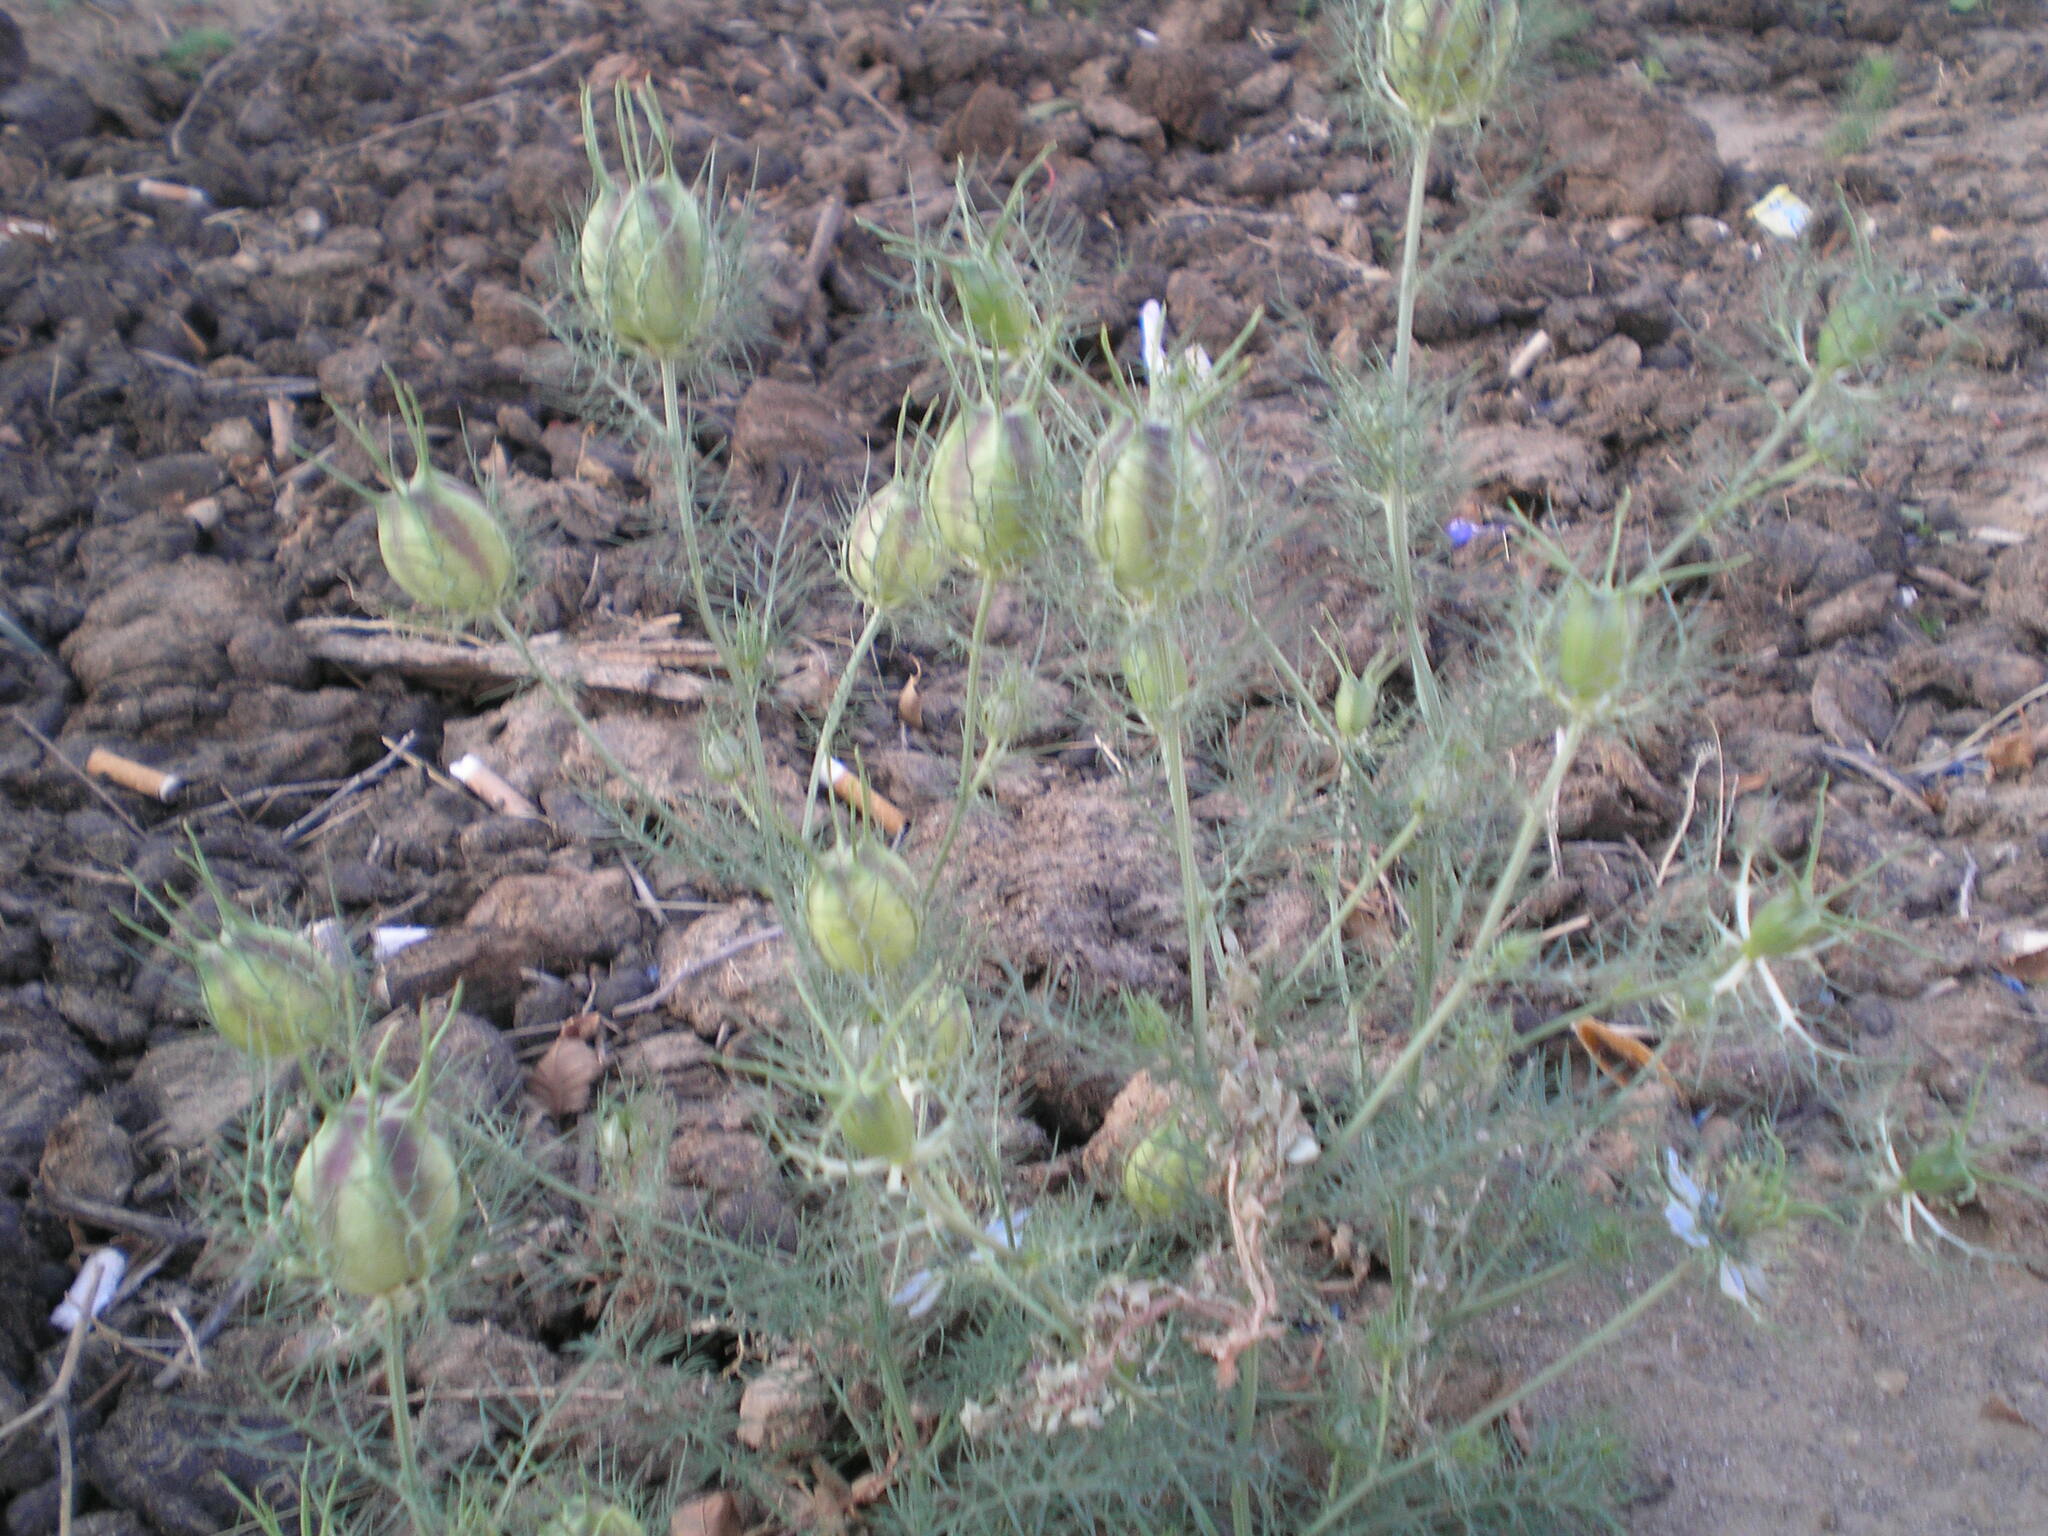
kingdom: Plantae
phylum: Tracheophyta
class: Magnoliopsida
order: Ranunculales
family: Ranunculaceae
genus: Nigella
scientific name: Nigella damascena
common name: Love-in-a-mist
